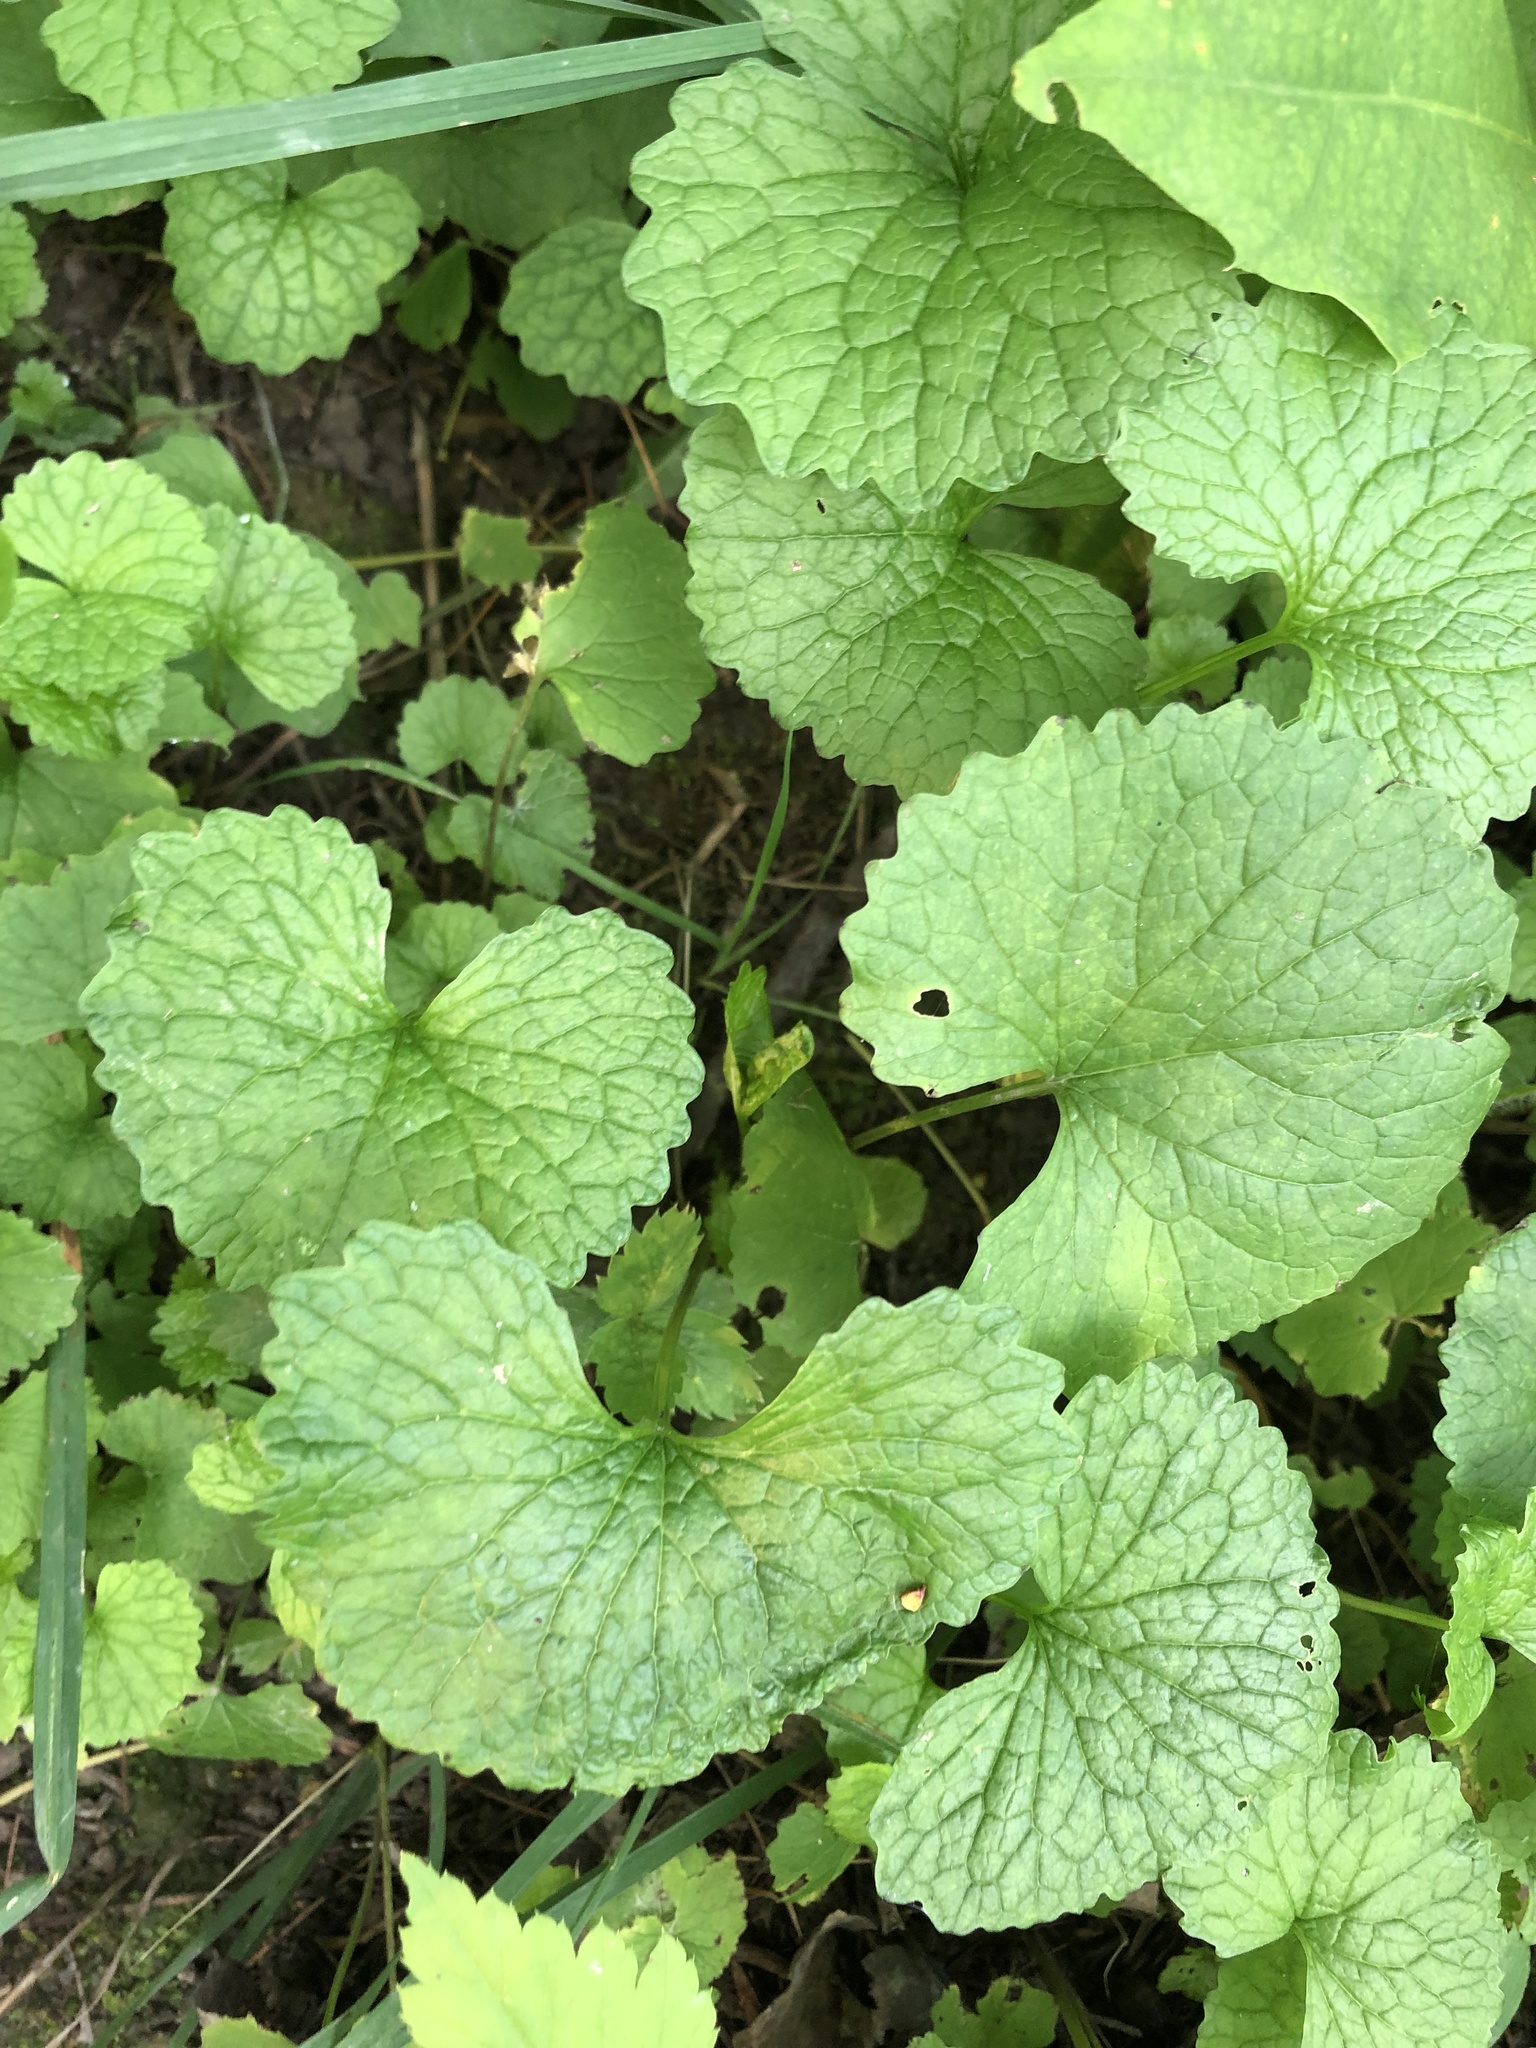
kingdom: Plantae
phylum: Tracheophyta
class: Magnoliopsida
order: Brassicales
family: Brassicaceae
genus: Alliaria
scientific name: Alliaria petiolata
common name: Garlic mustard
